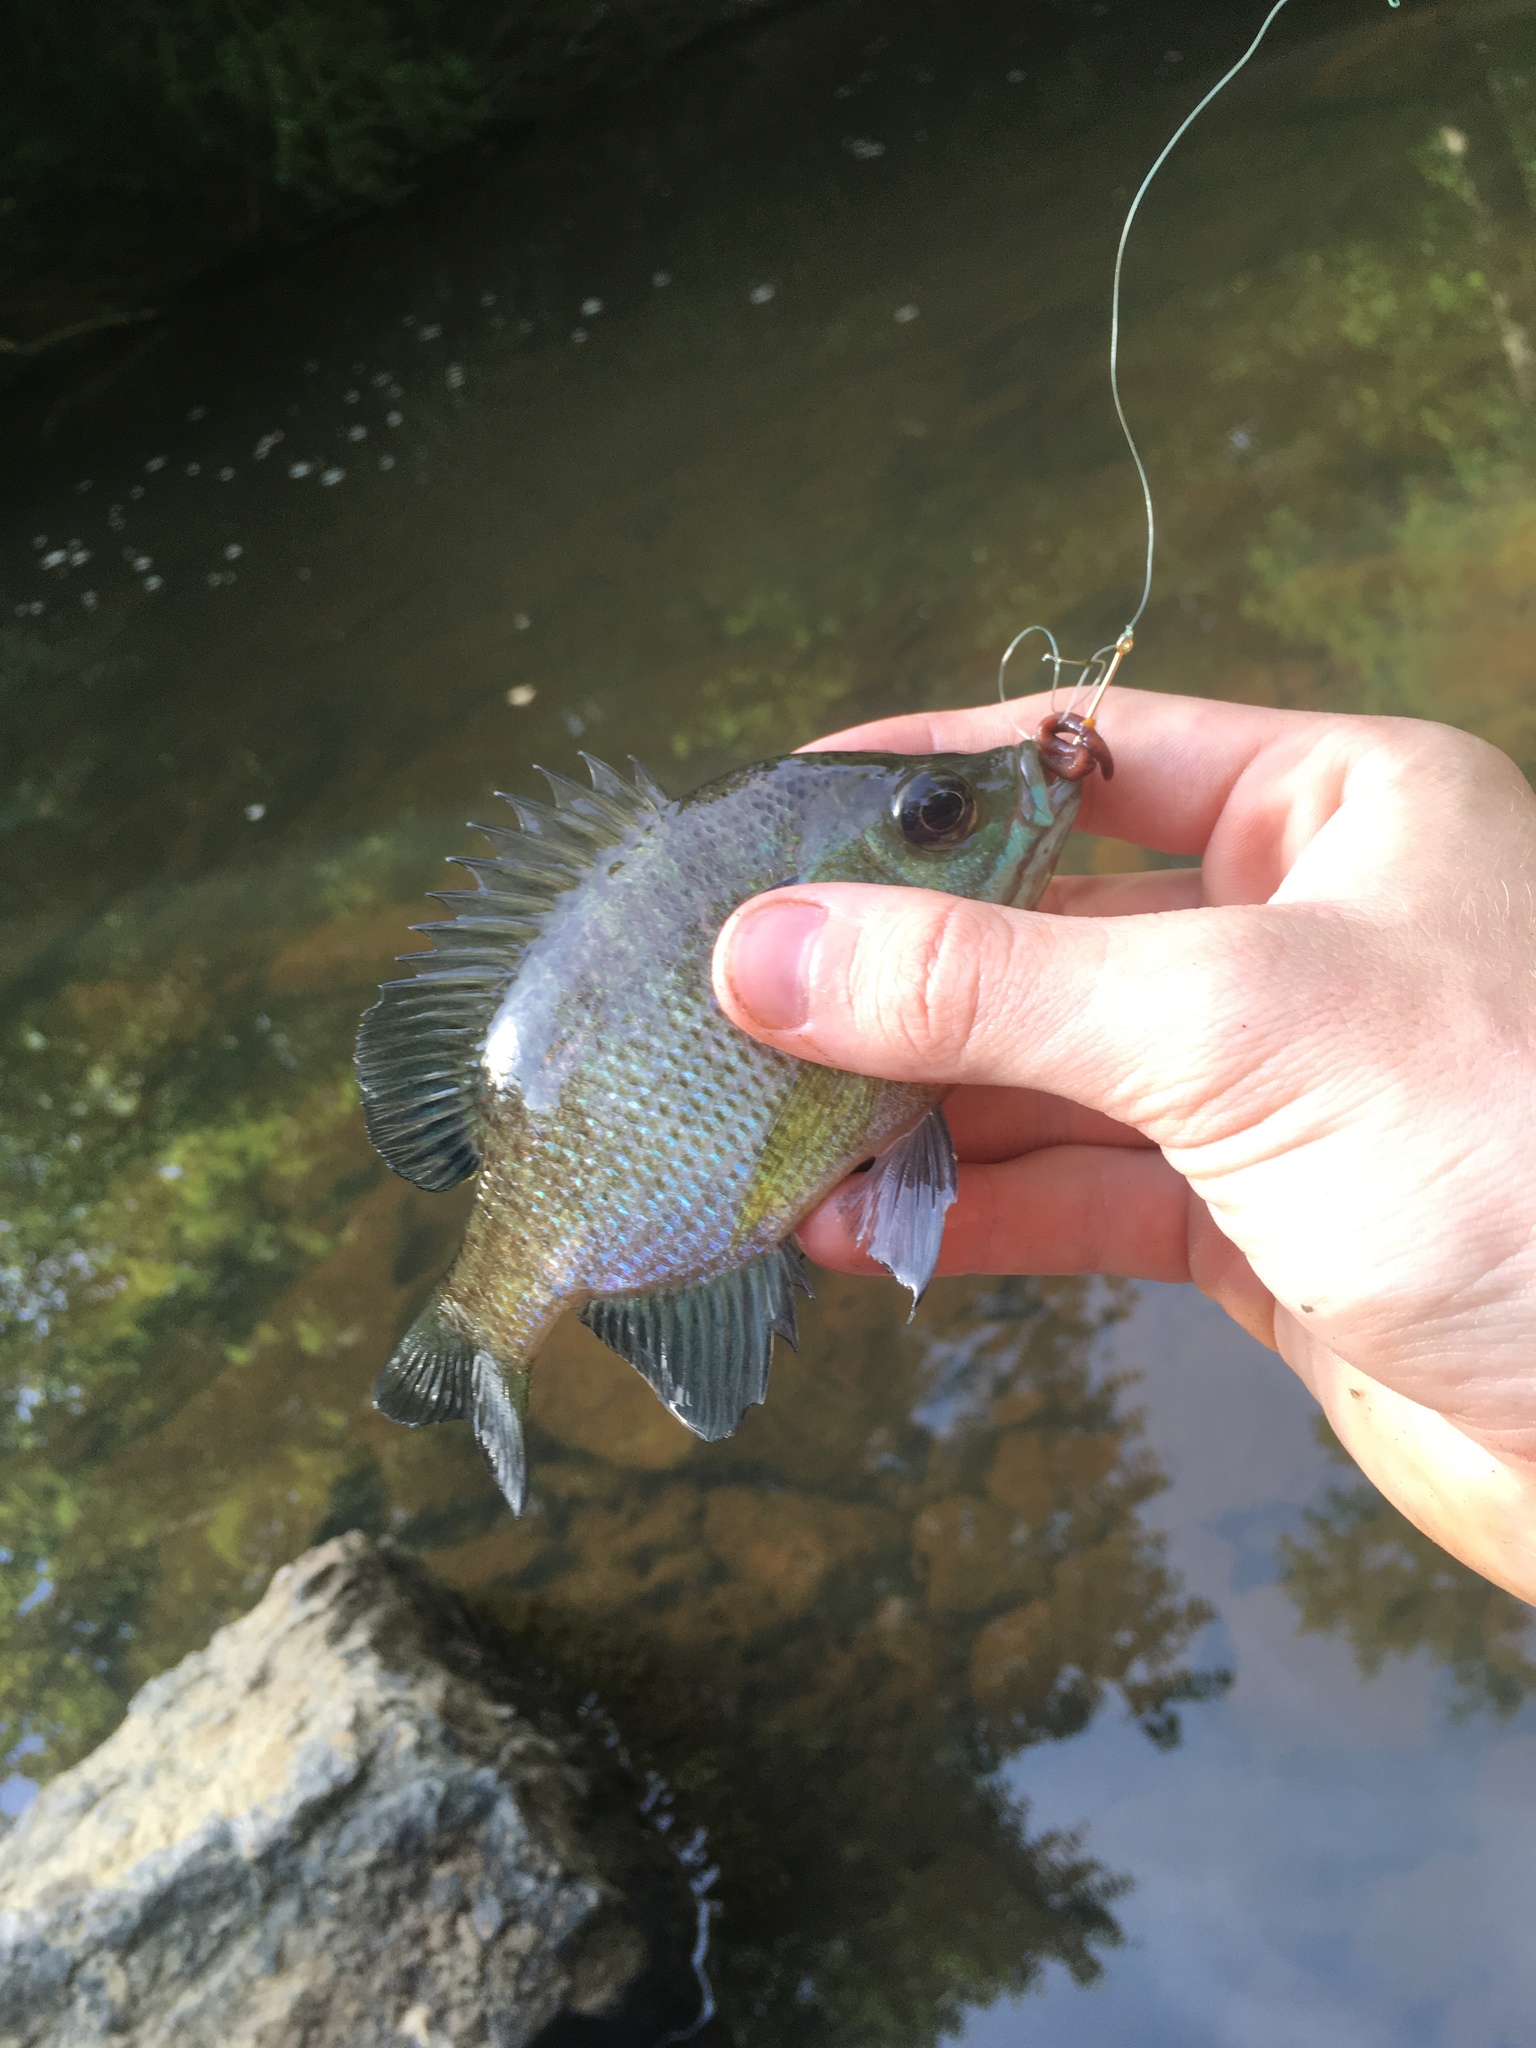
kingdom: Animalia
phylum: Chordata
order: Perciformes
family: Centrarchidae
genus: Lepomis
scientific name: Lepomis macrochirus
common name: Bluegill
